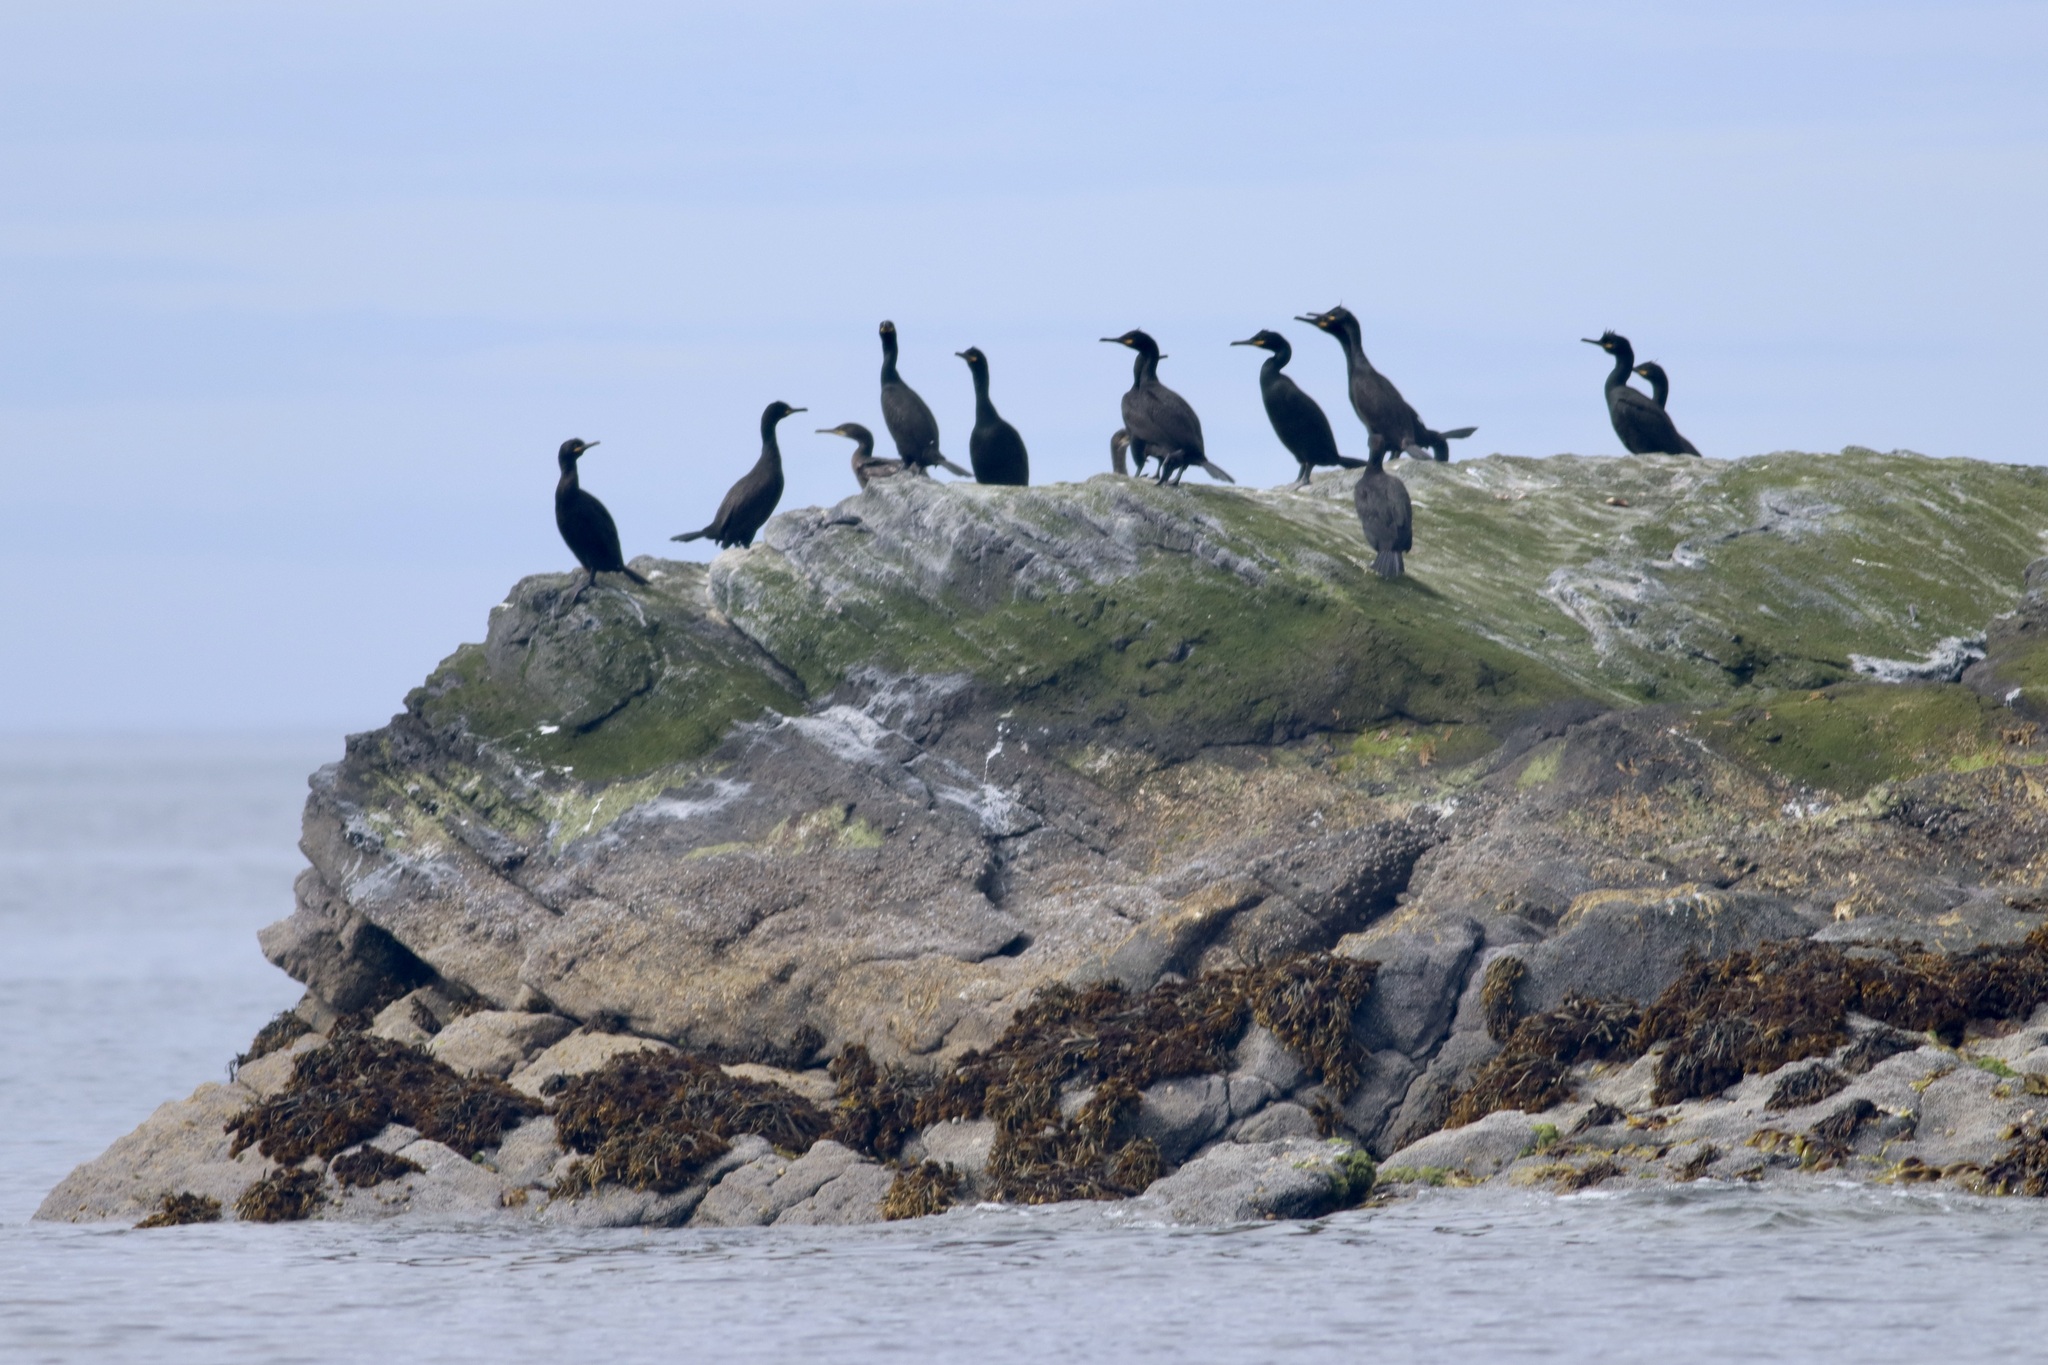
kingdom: Animalia
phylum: Chordata
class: Aves
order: Suliformes
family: Phalacrocoracidae
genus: Phalacrocorax
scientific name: Phalacrocorax aristotelis
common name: European shag
